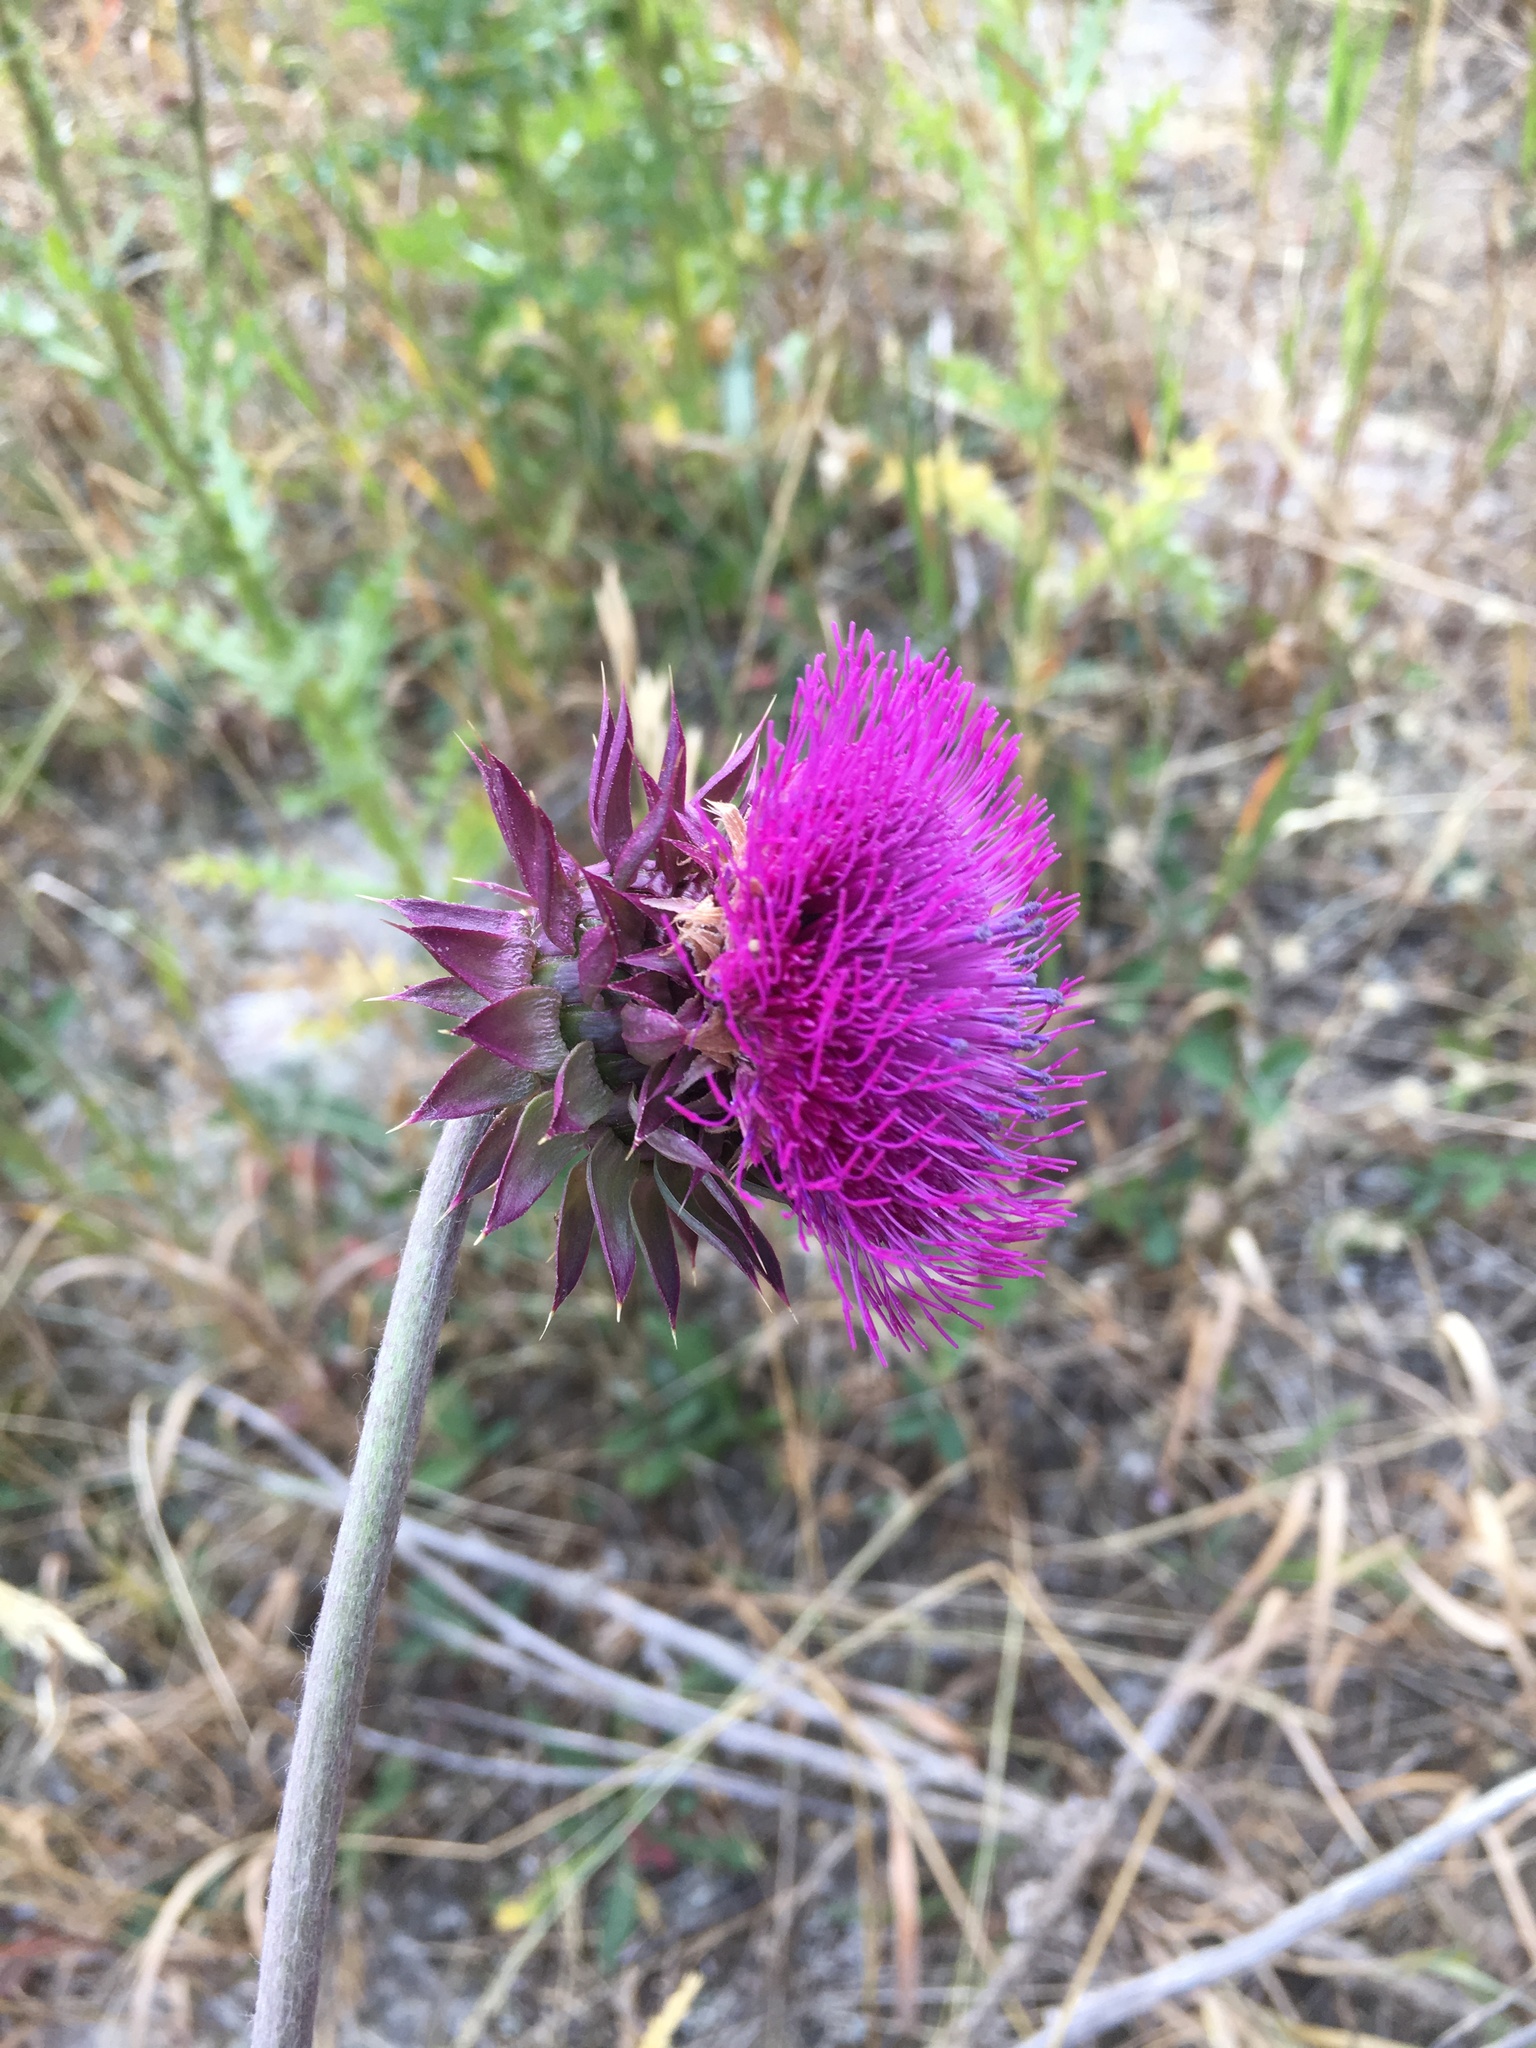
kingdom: Plantae
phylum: Tracheophyta
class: Magnoliopsida
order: Asterales
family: Asteraceae
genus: Carduus
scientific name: Carduus nutans
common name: Musk thistle
